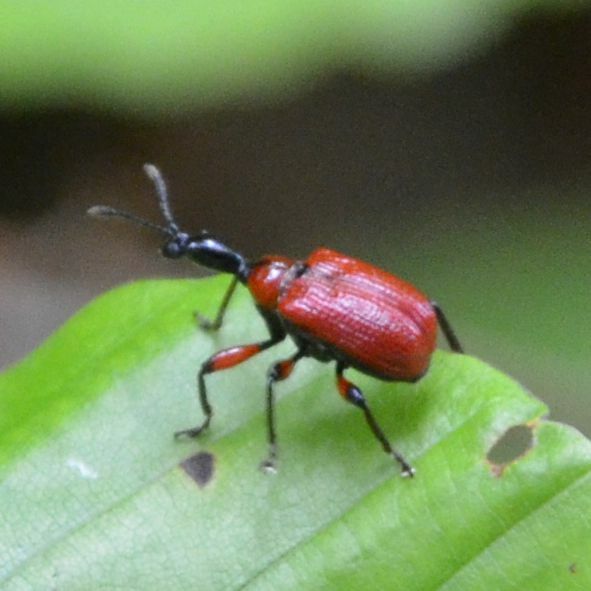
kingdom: Animalia
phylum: Arthropoda
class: Insecta
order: Coleoptera
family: Attelabidae
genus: Apoderus
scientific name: Apoderus coryli
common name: Hazel leaf roller
